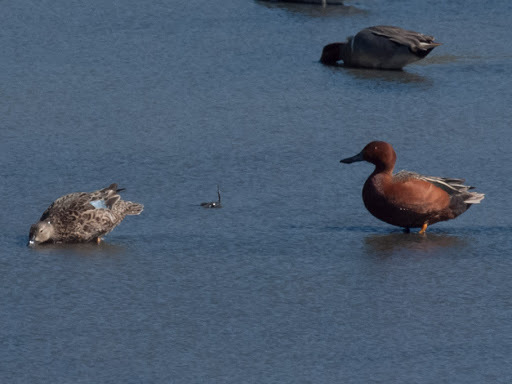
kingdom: Animalia
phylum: Chordata
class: Aves
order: Anseriformes
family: Anatidae
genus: Spatula
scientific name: Spatula cyanoptera
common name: Cinnamon teal
